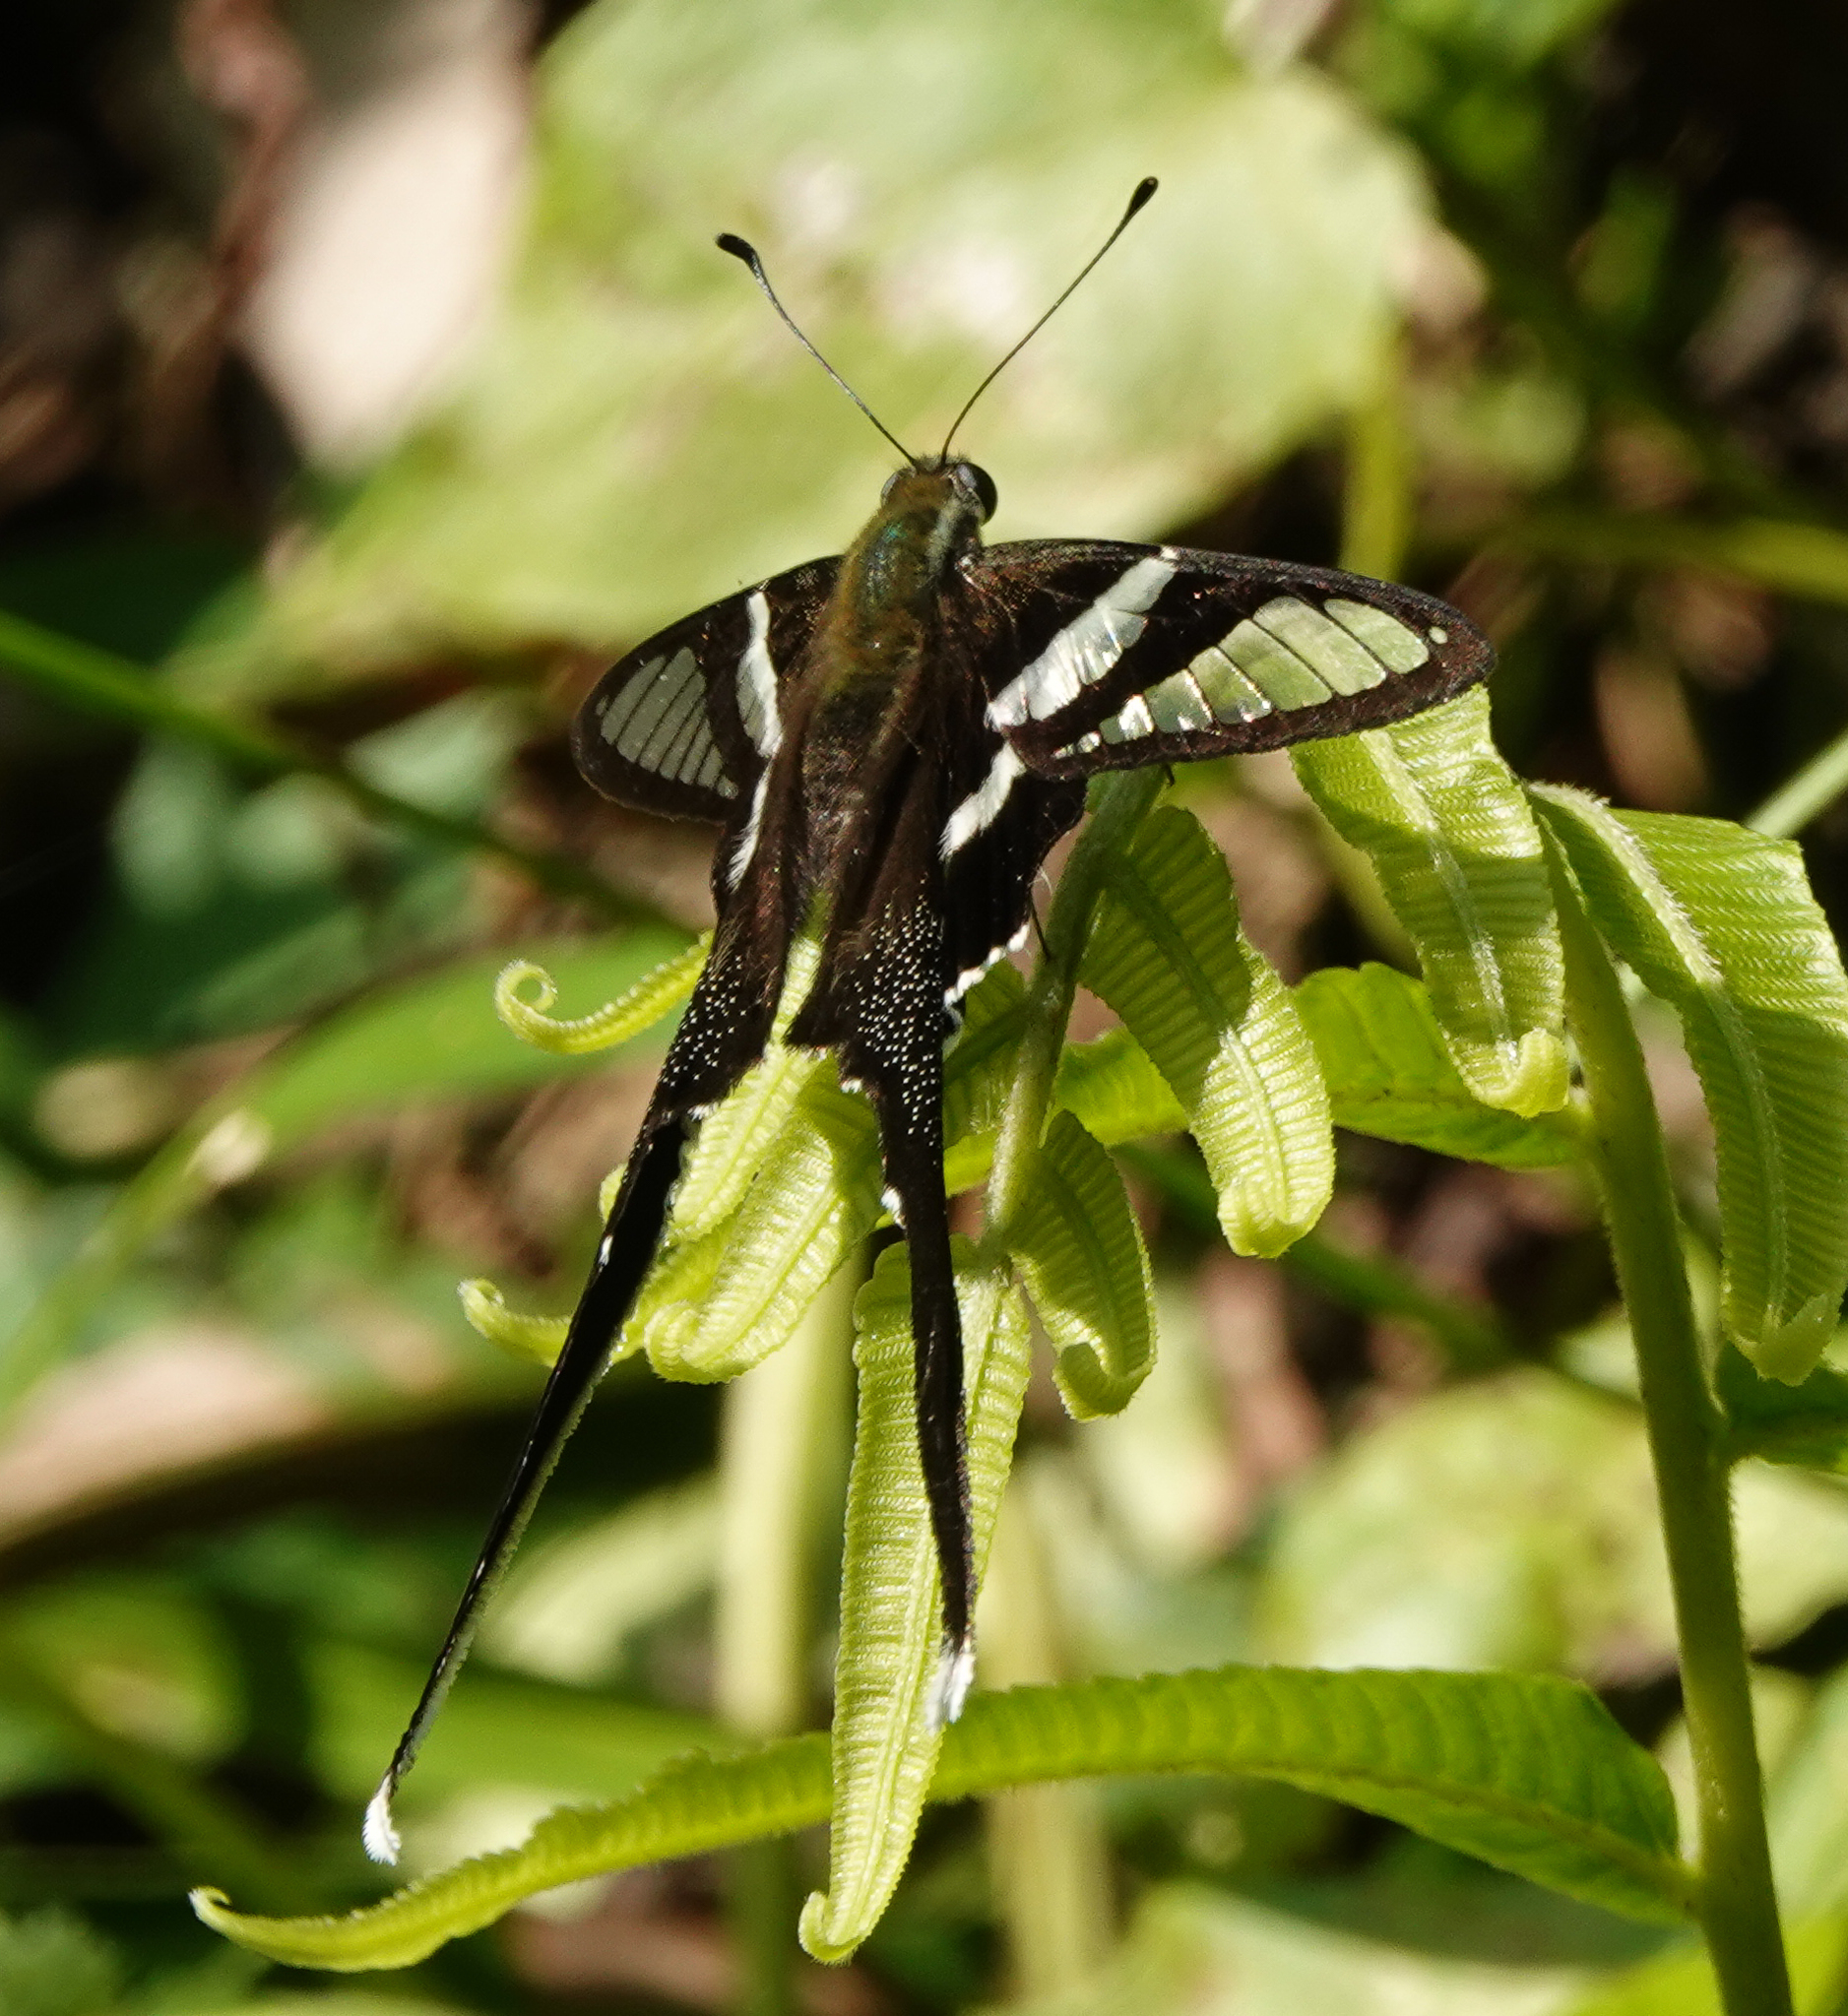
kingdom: Animalia
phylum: Arthropoda
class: Insecta
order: Lepidoptera
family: Papilionidae
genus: Lamproptera
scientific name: Lamproptera curius
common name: White dragontail
